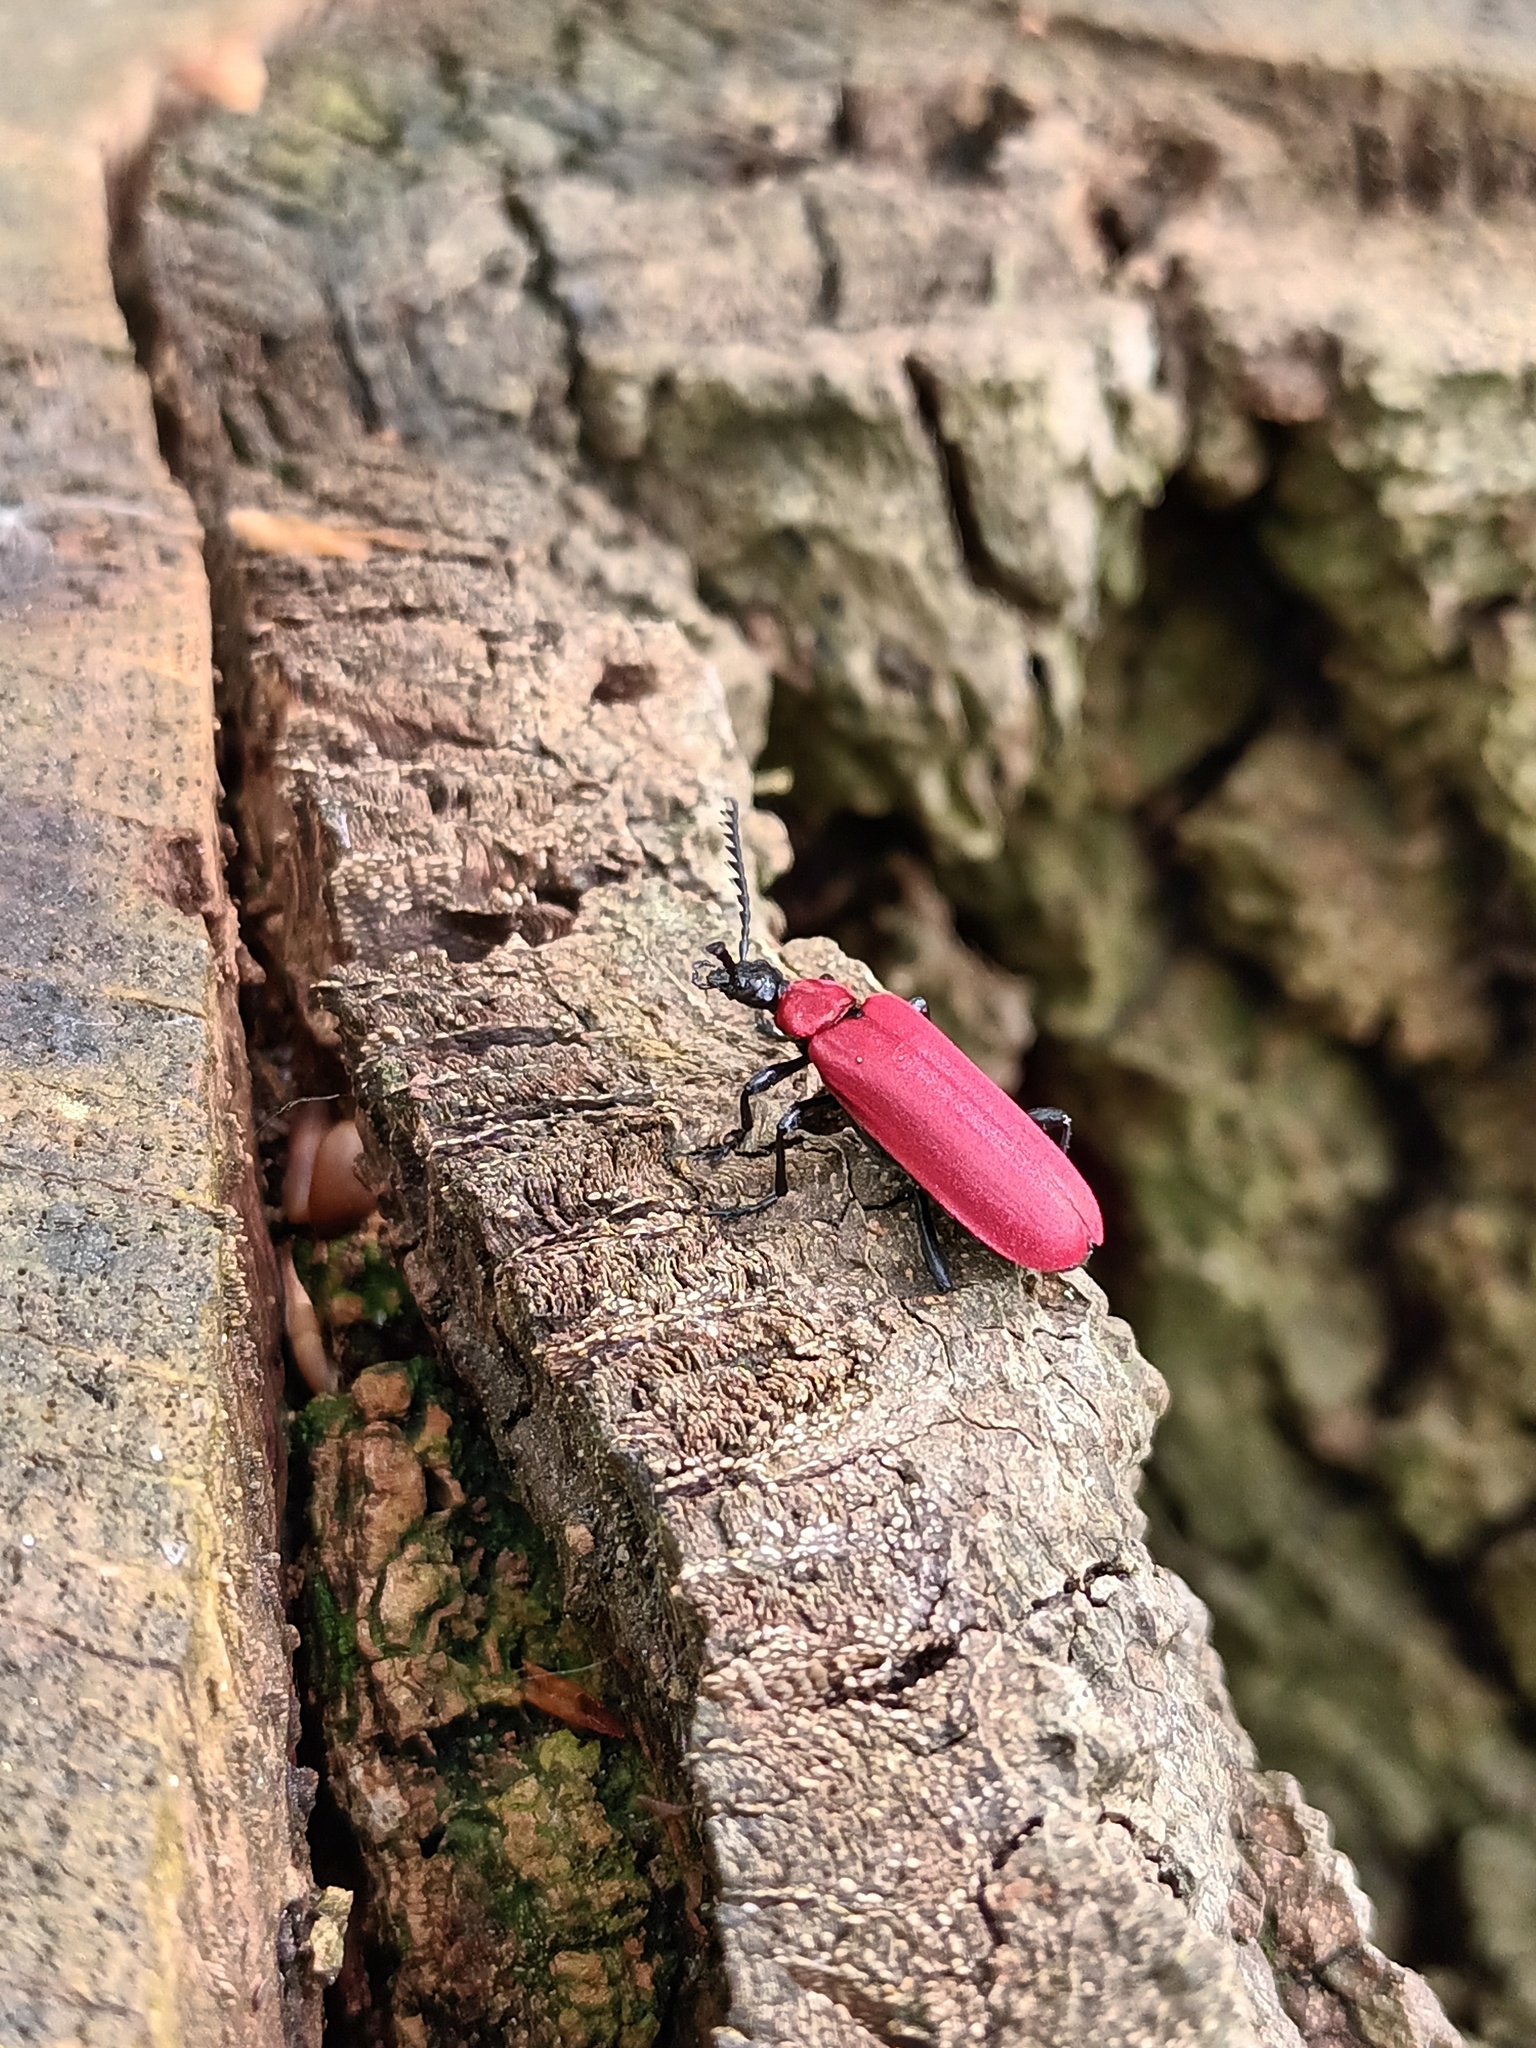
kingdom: Animalia
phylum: Arthropoda
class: Insecta
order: Coleoptera
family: Pyrochroidae
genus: Pyrochroa
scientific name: Pyrochroa coccinea
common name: Black-headed cardinal beetle
